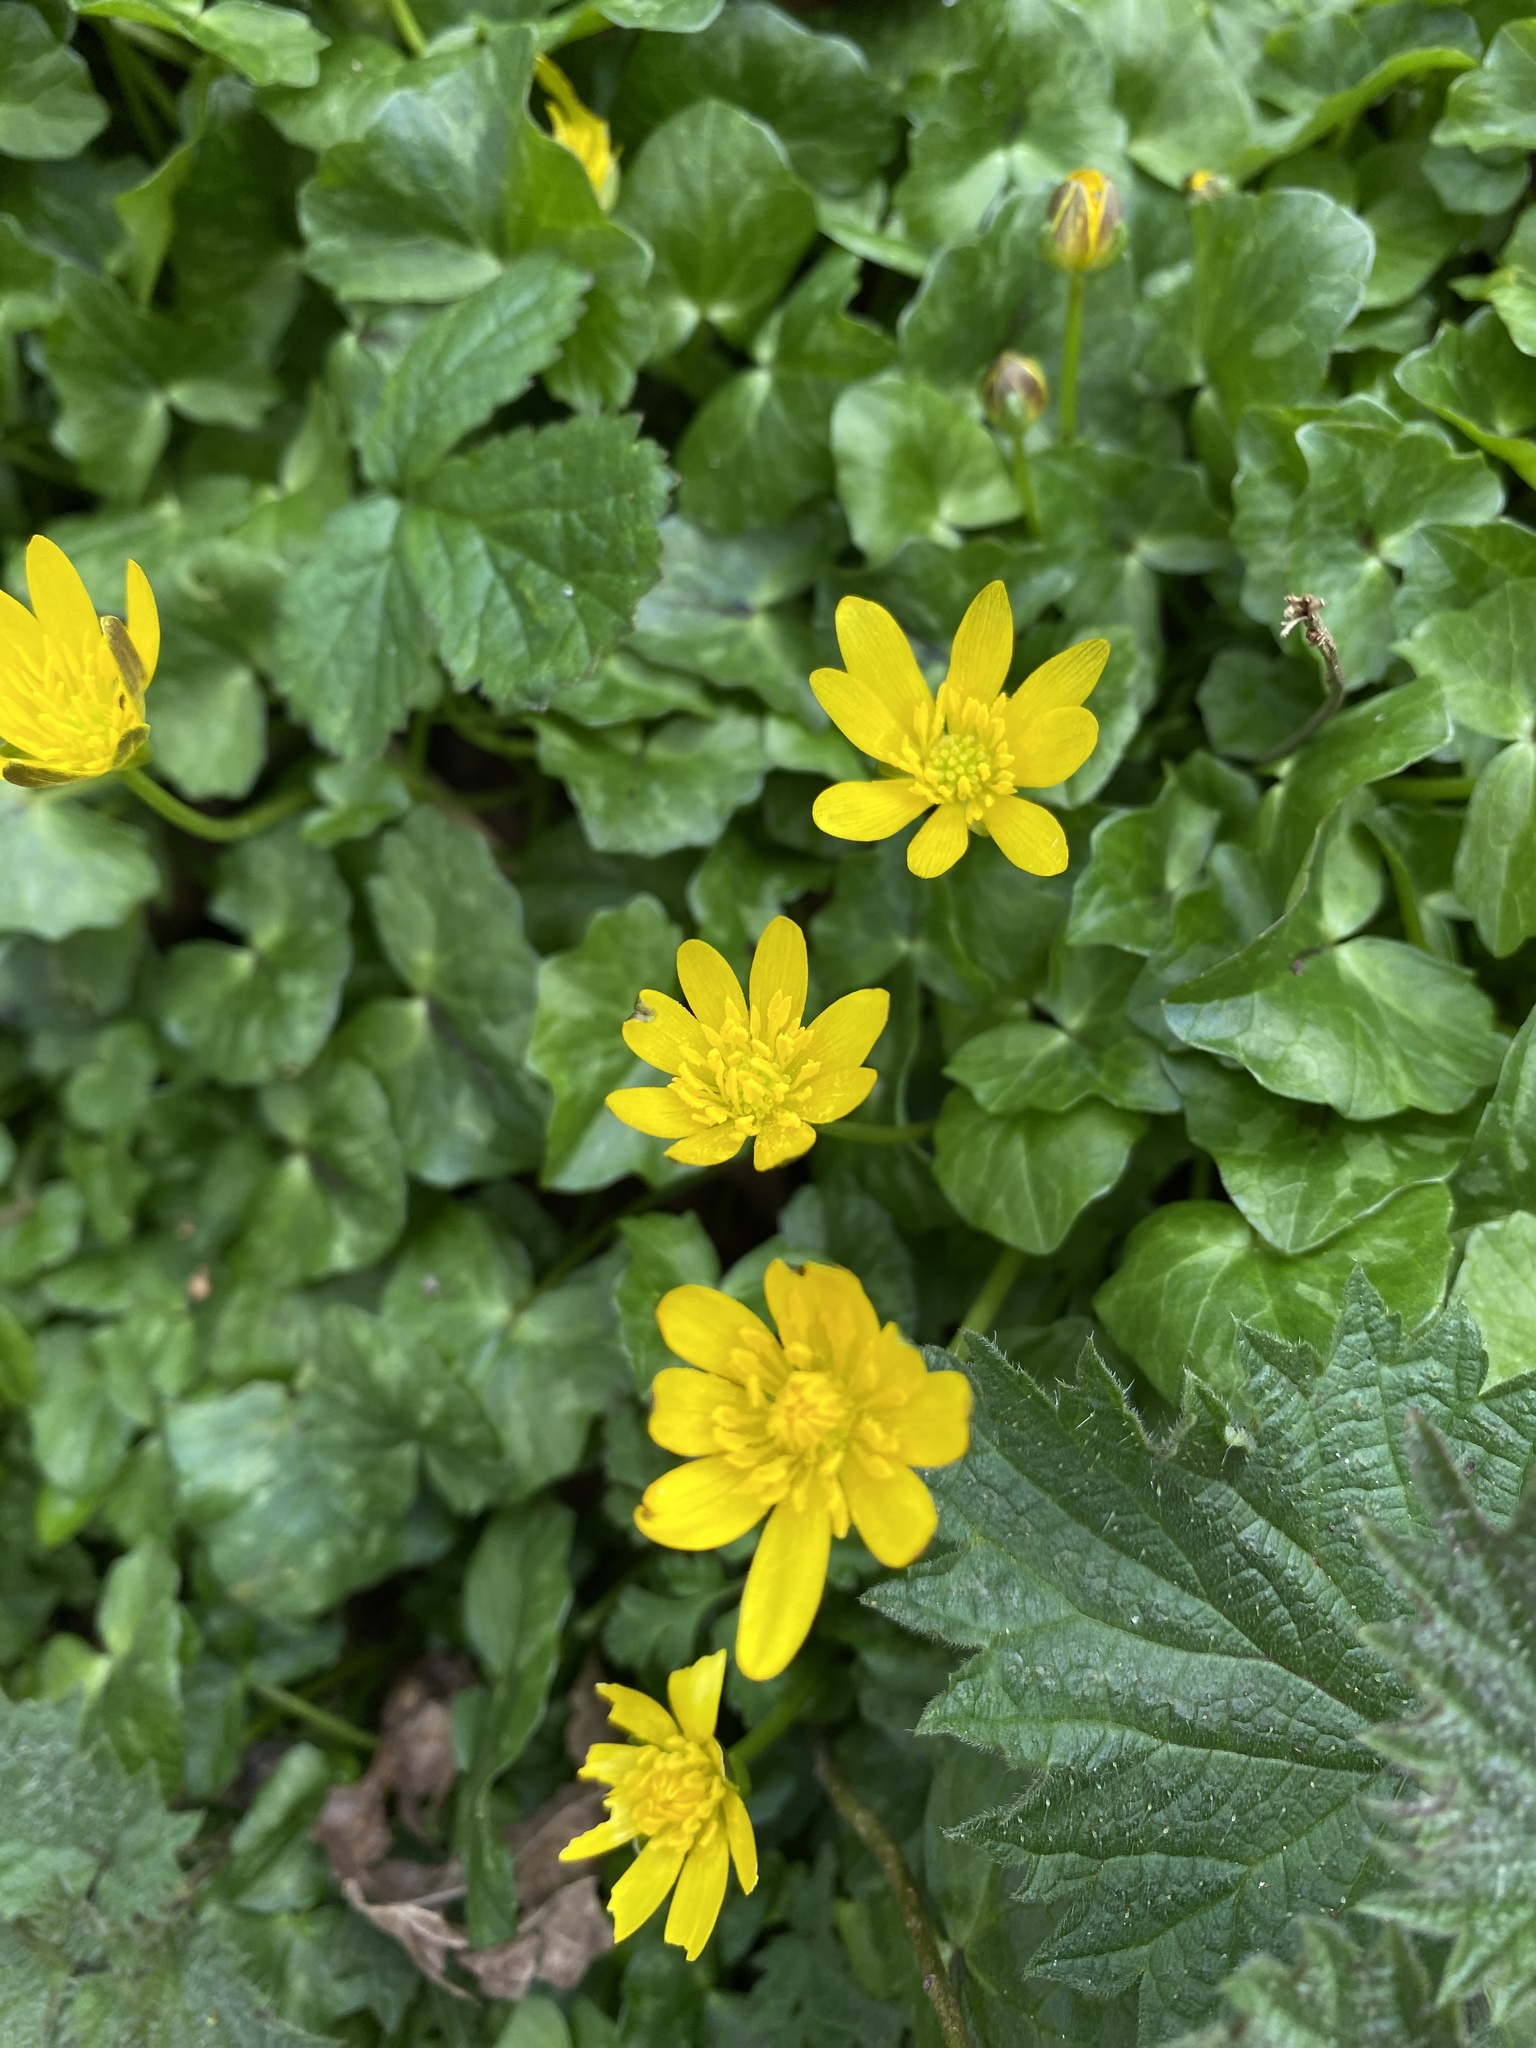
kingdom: Plantae
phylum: Tracheophyta
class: Magnoliopsida
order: Ranunculales
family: Ranunculaceae
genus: Ficaria
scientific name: Ficaria verna
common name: Lesser celandine
